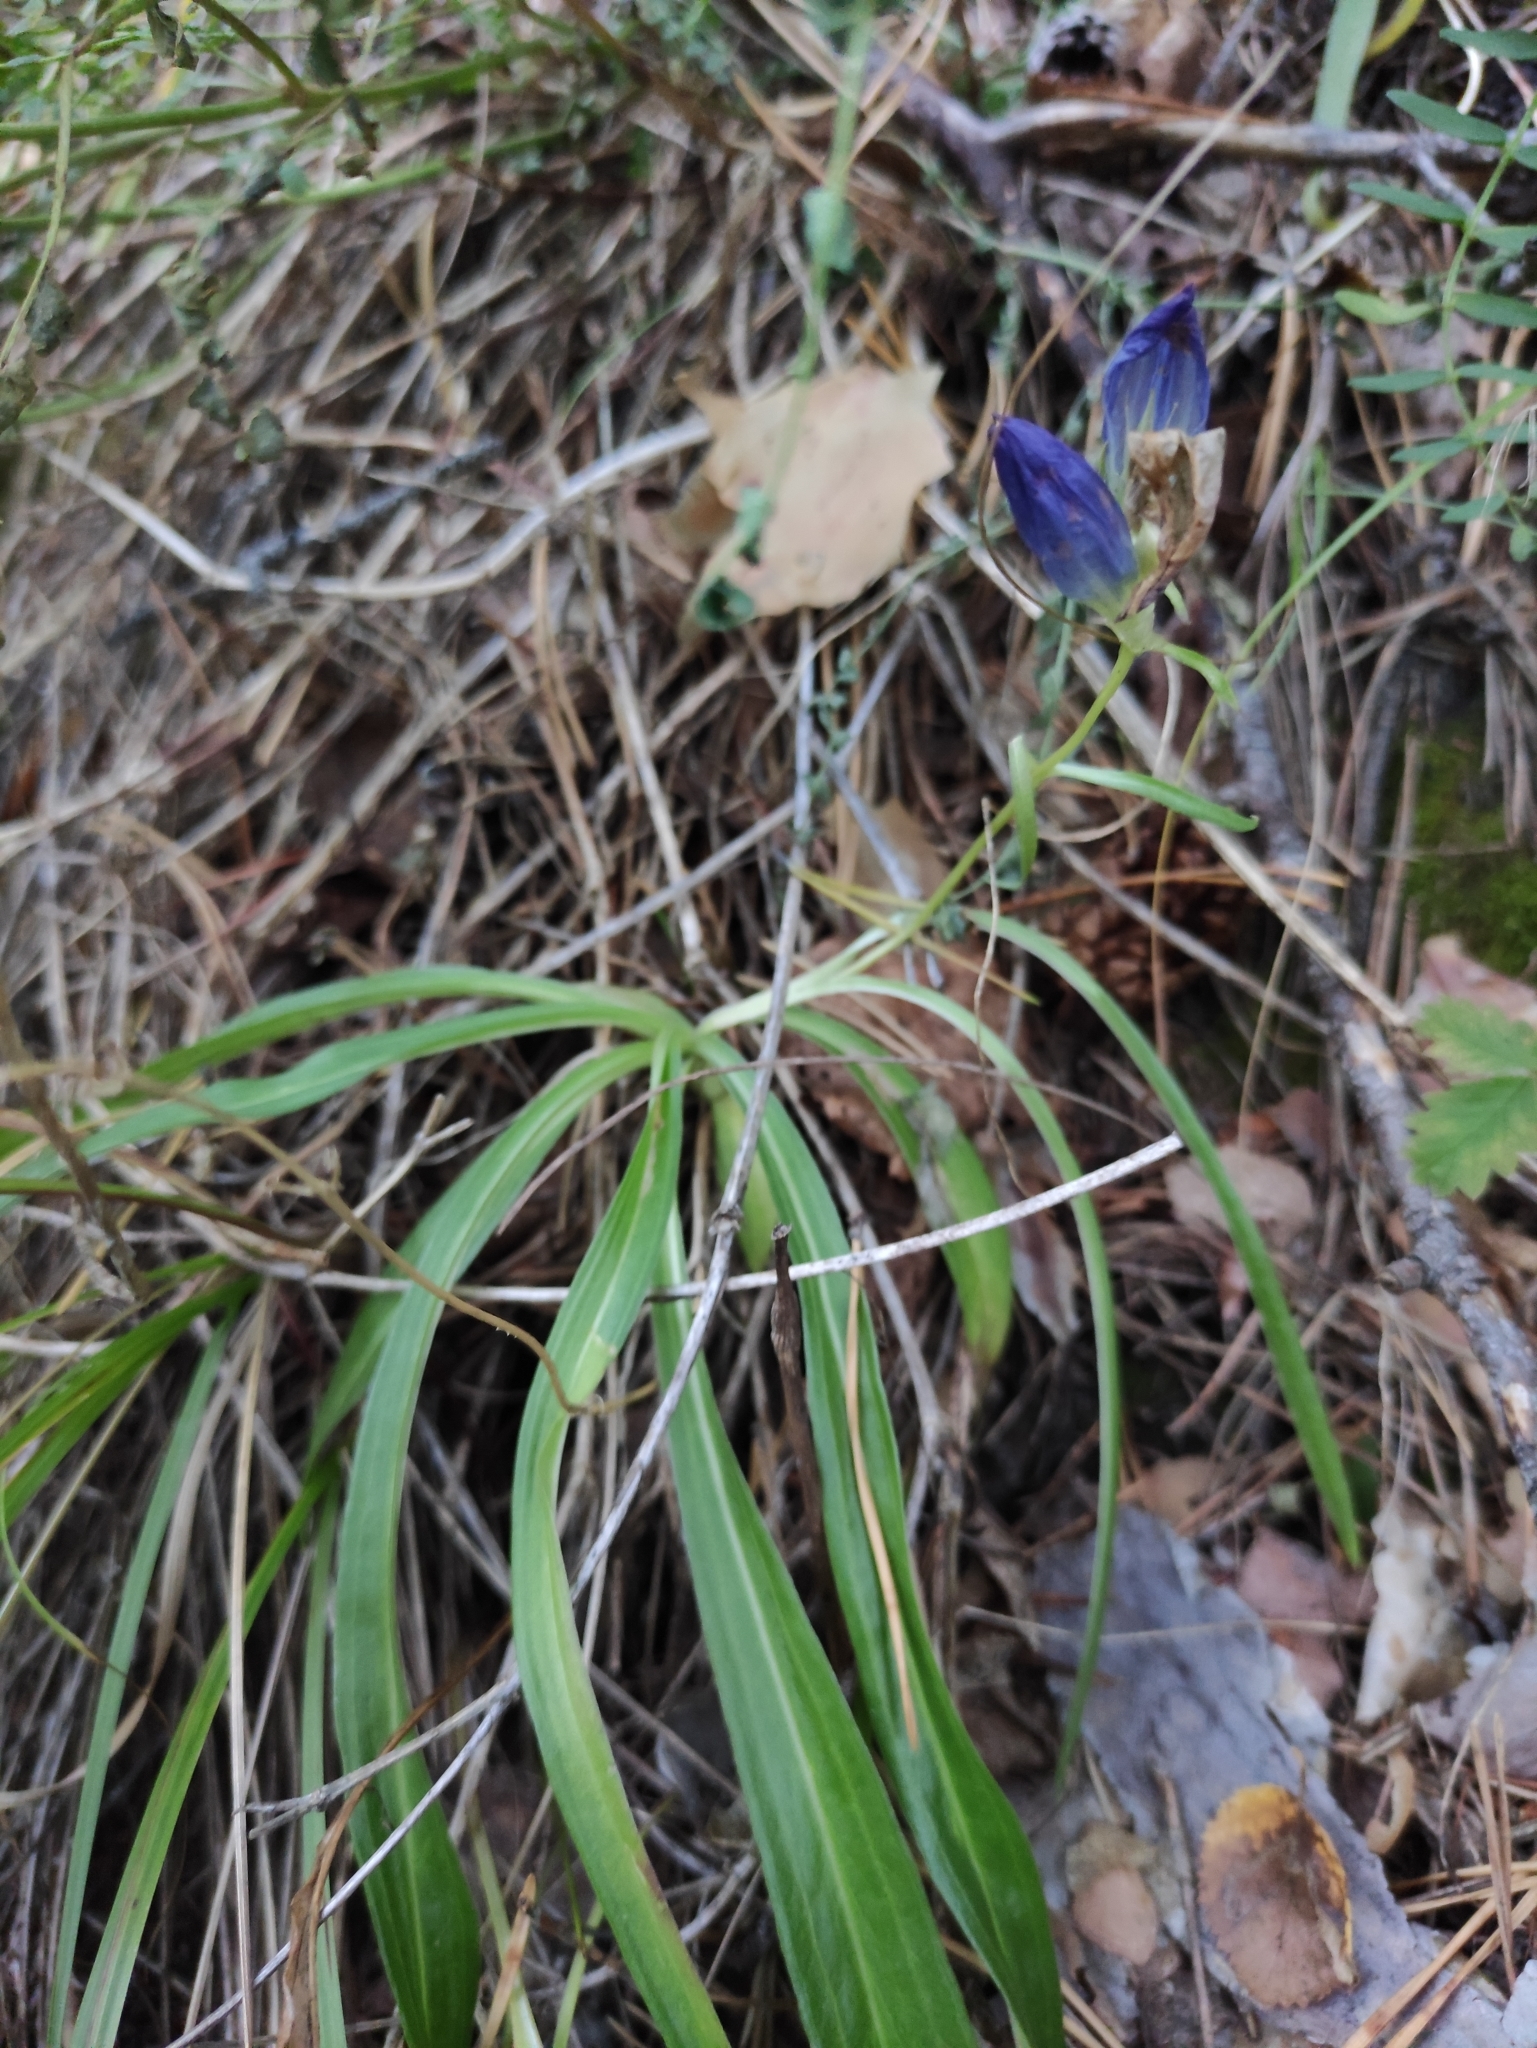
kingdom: Plantae
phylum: Tracheophyta
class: Magnoliopsida
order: Gentianales
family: Gentianaceae
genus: Gentiana
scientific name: Gentiana decumbens
